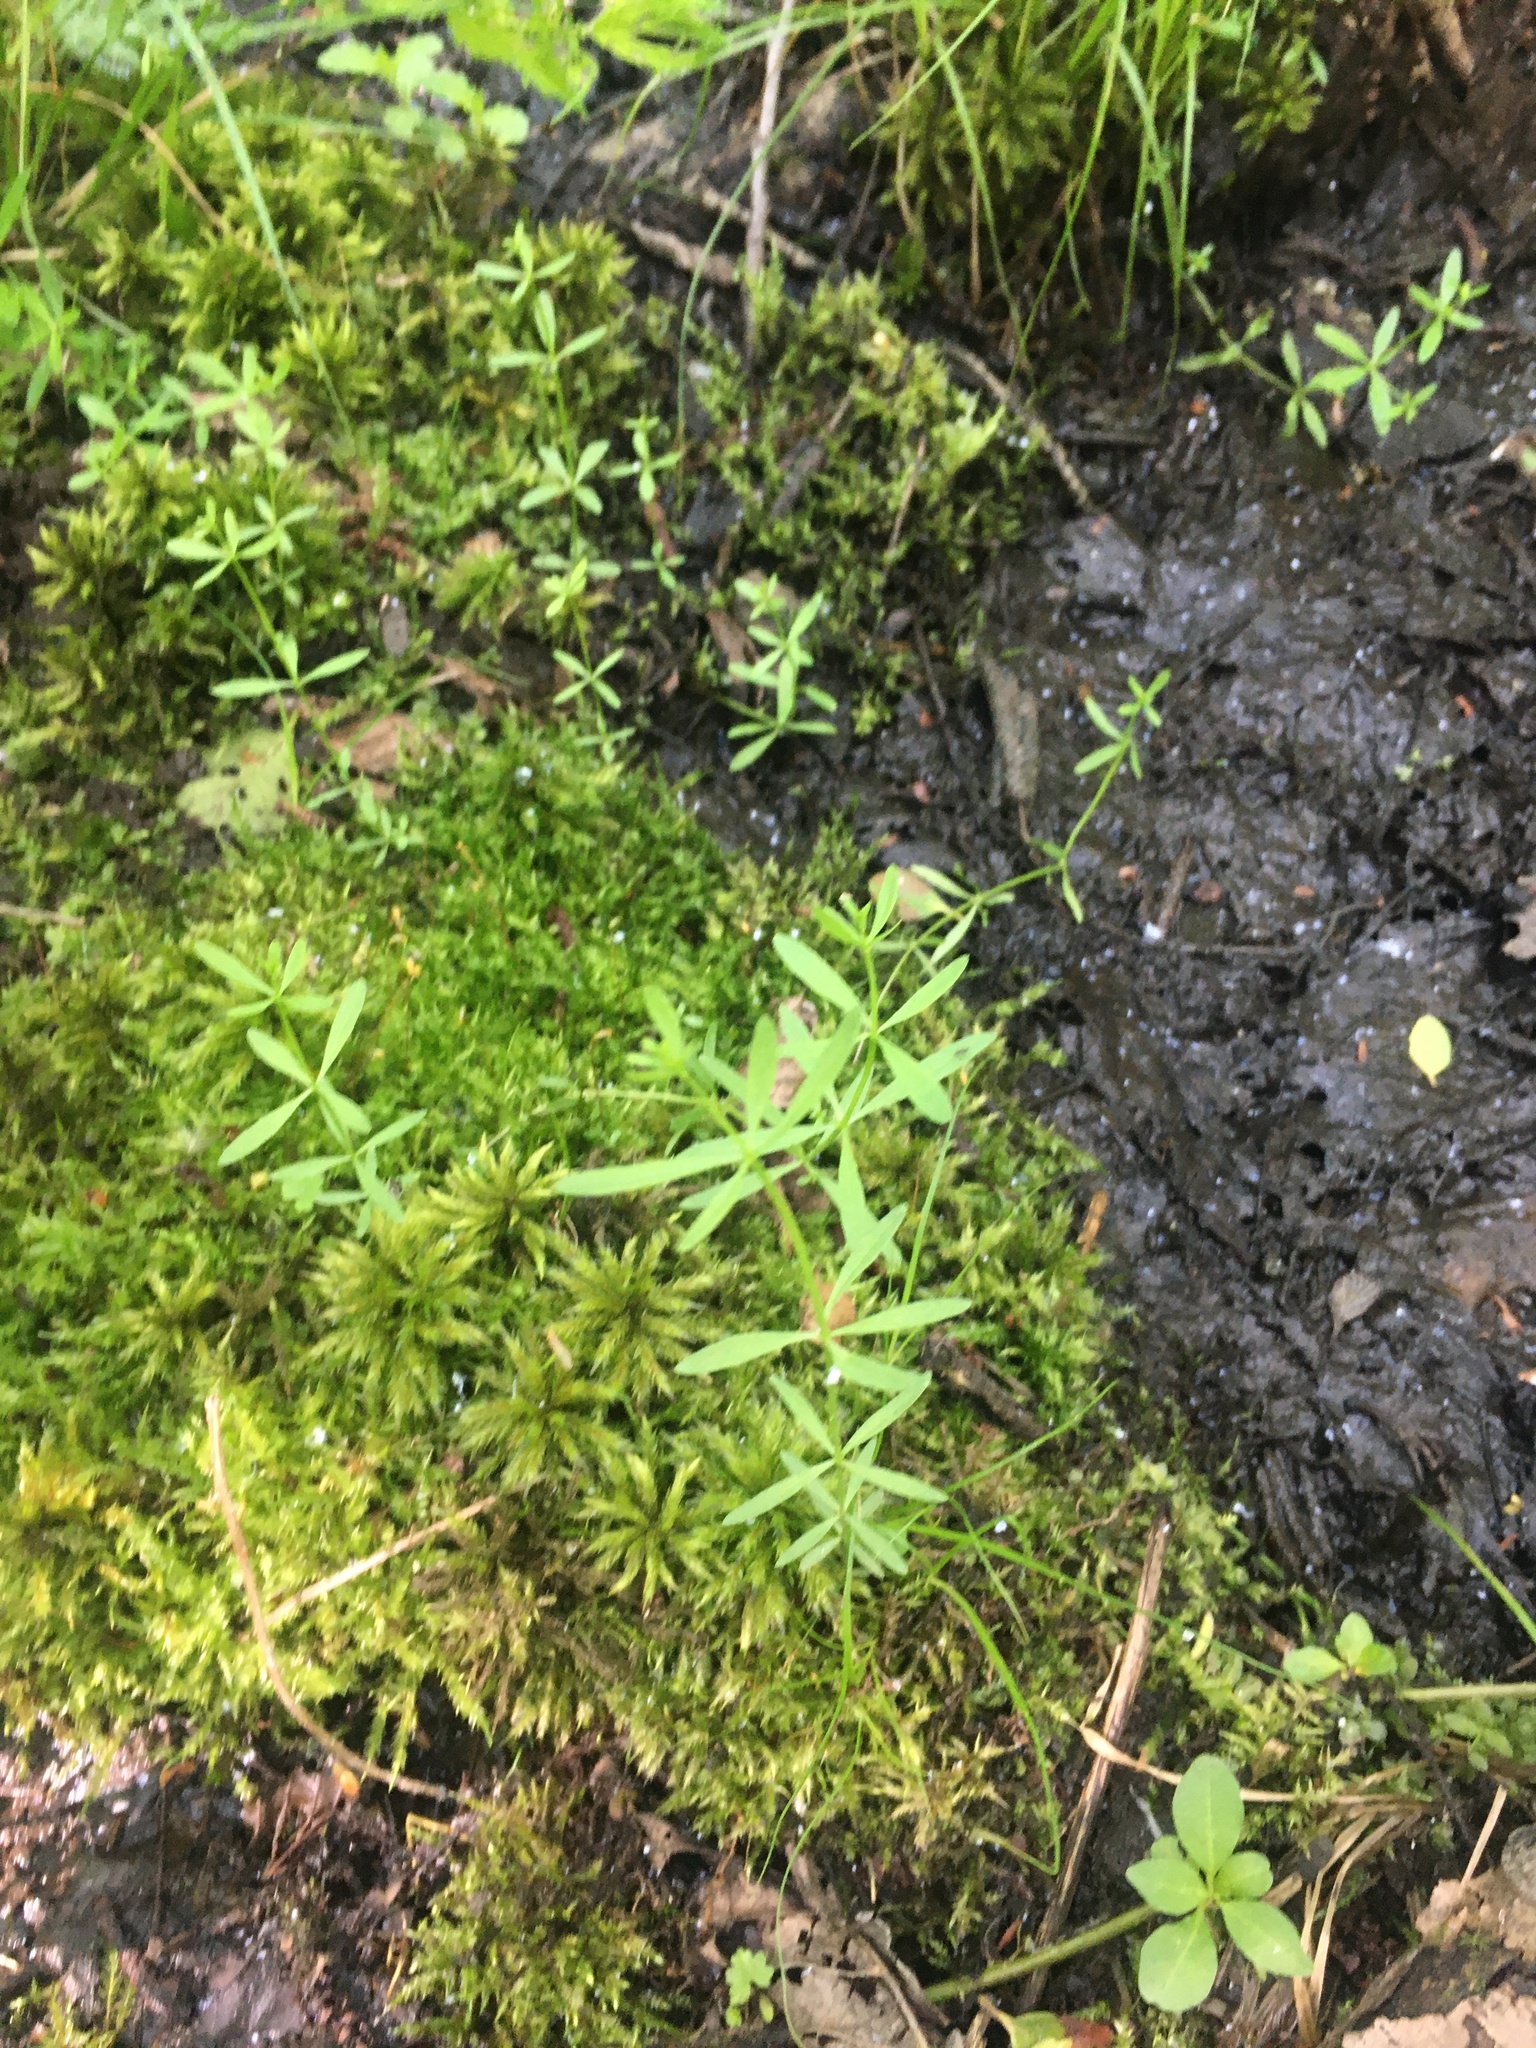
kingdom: Plantae
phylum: Tracheophyta
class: Magnoliopsida
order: Gentianales
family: Rubiaceae
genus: Galium
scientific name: Galium palustre
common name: Common marsh-bedstraw
